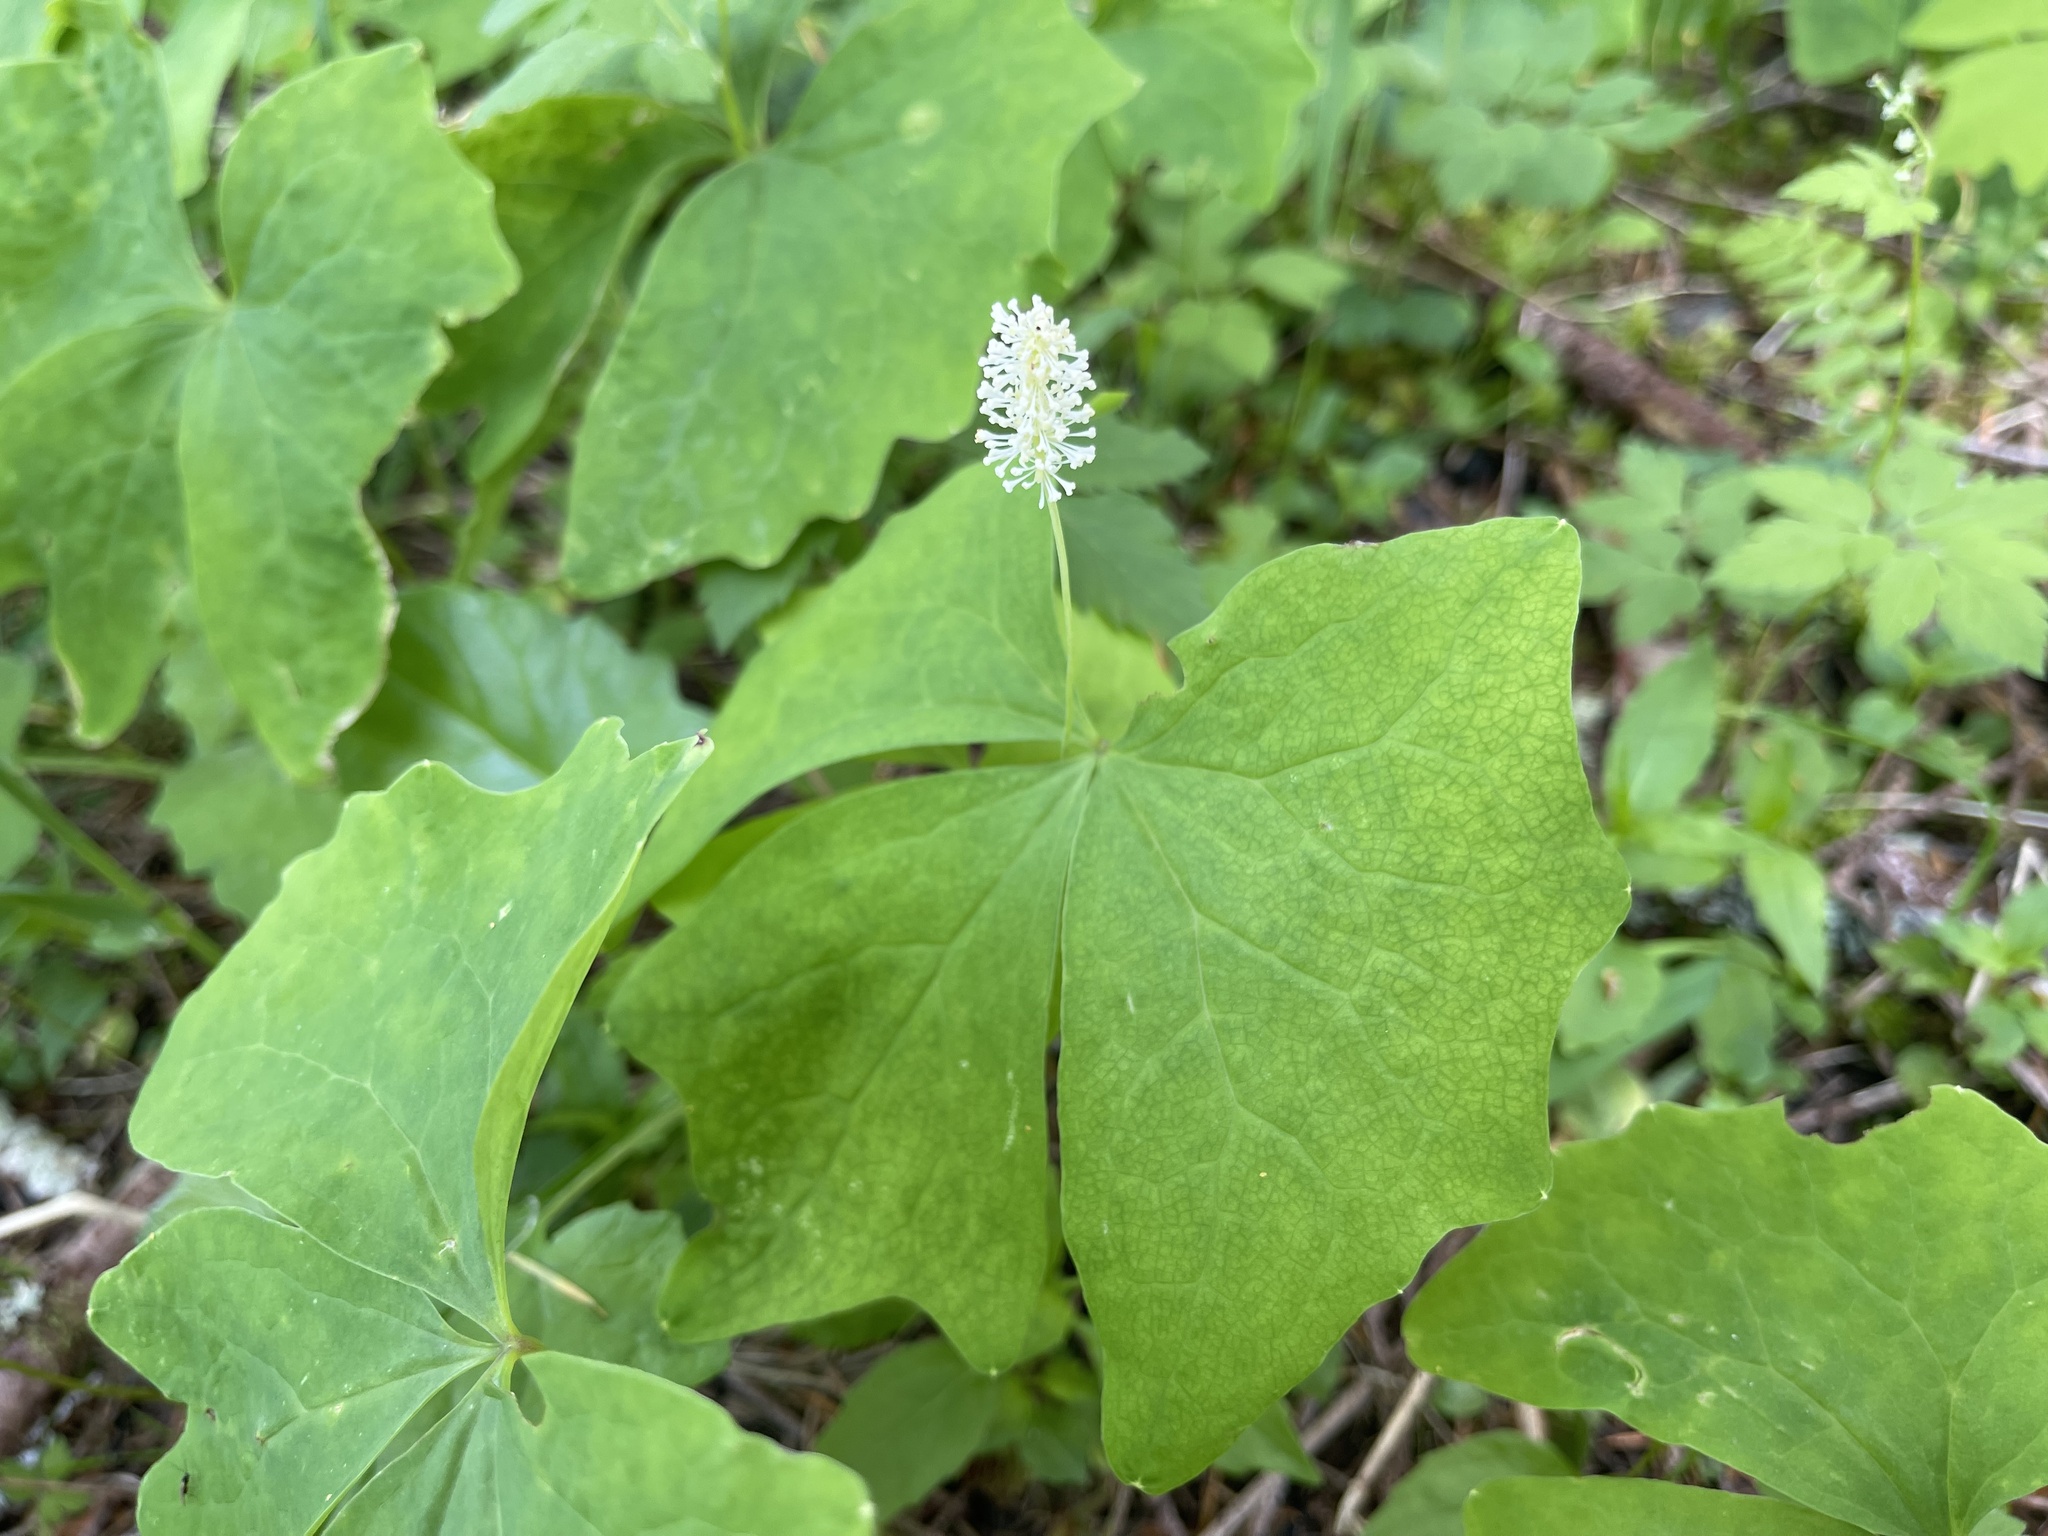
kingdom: Plantae
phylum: Tracheophyta
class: Magnoliopsida
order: Ranunculales
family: Berberidaceae
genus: Achlys
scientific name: Achlys triphylla
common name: Vanilla-leaf
